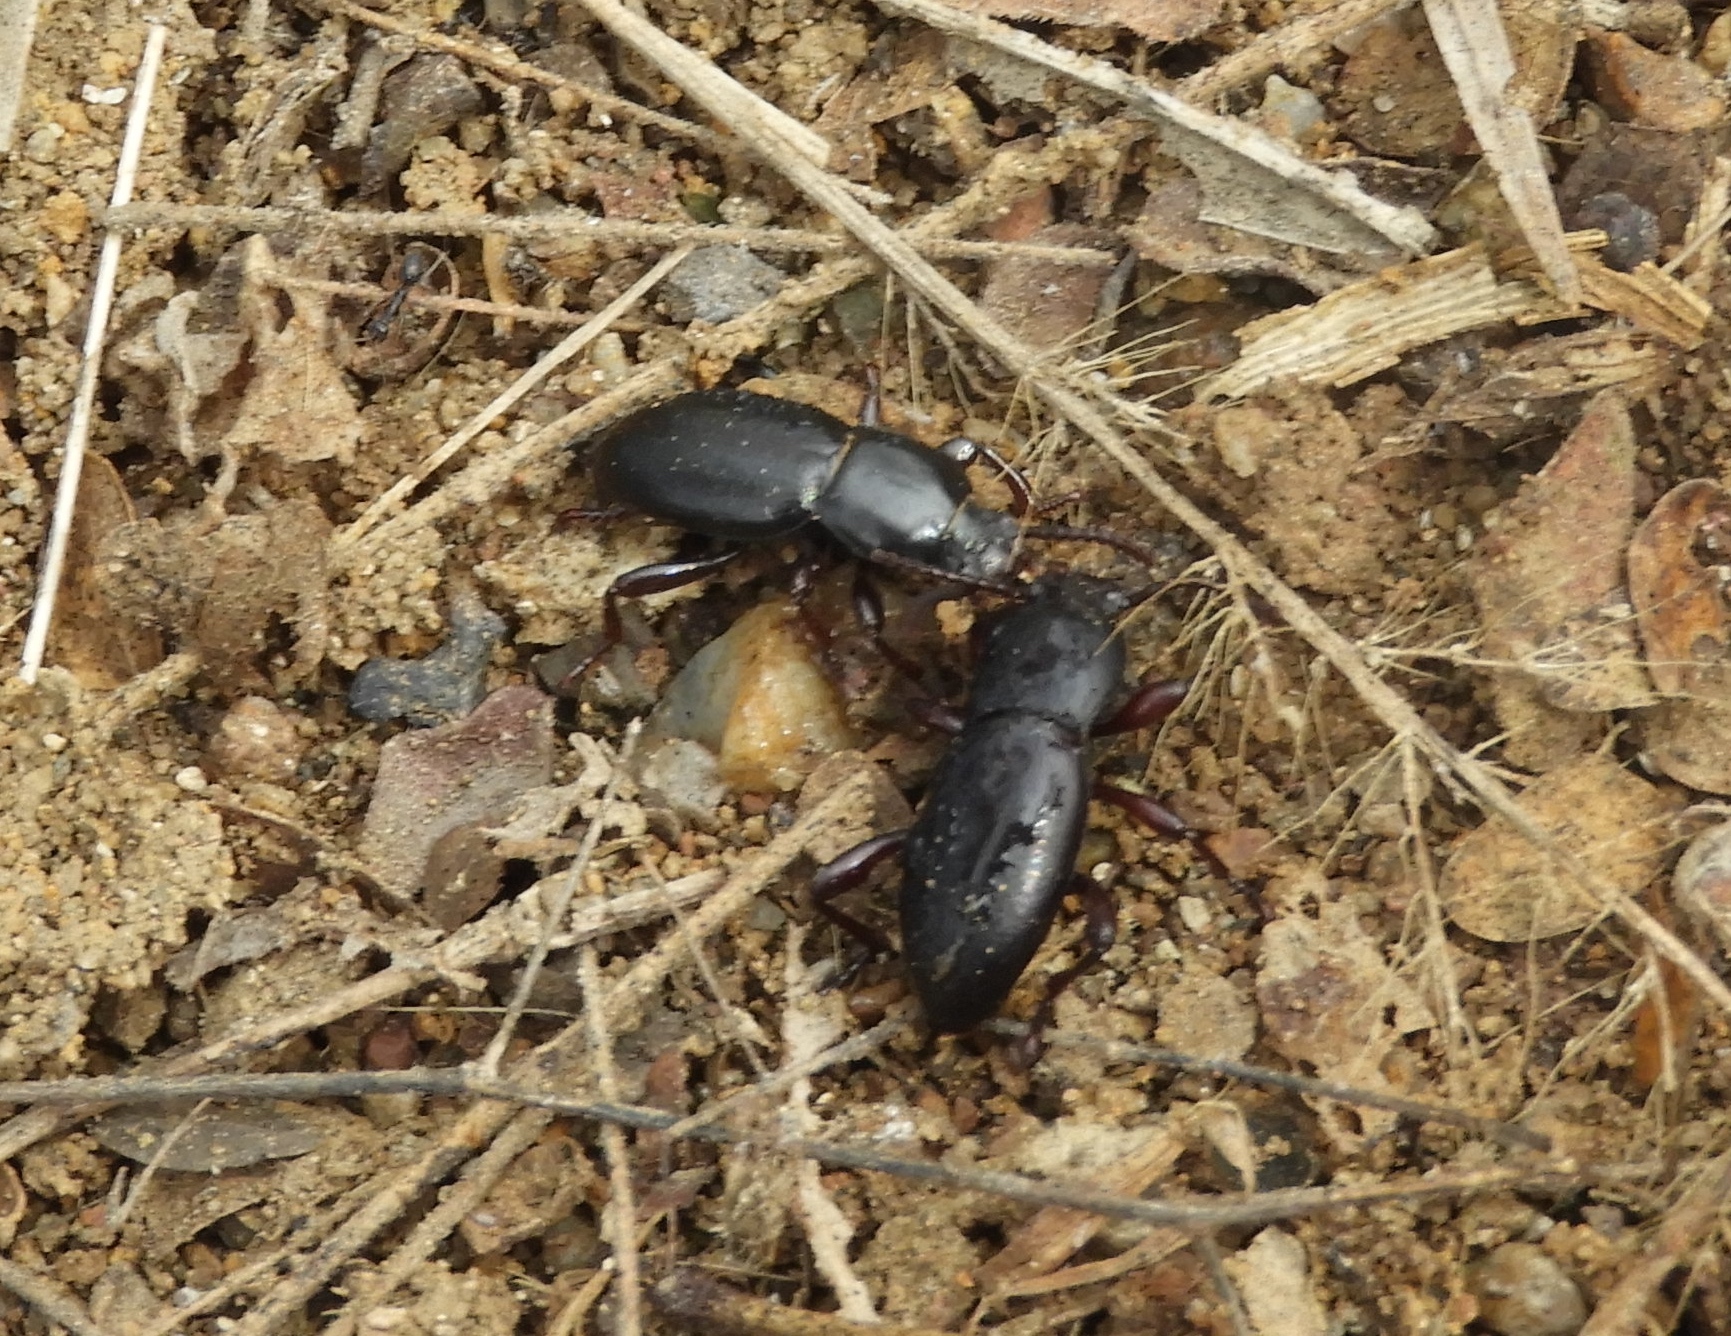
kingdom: Animalia
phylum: Arthropoda
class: Insecta
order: Coleoptera
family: Tenebrionidae
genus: Argoporis
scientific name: Argoporis
